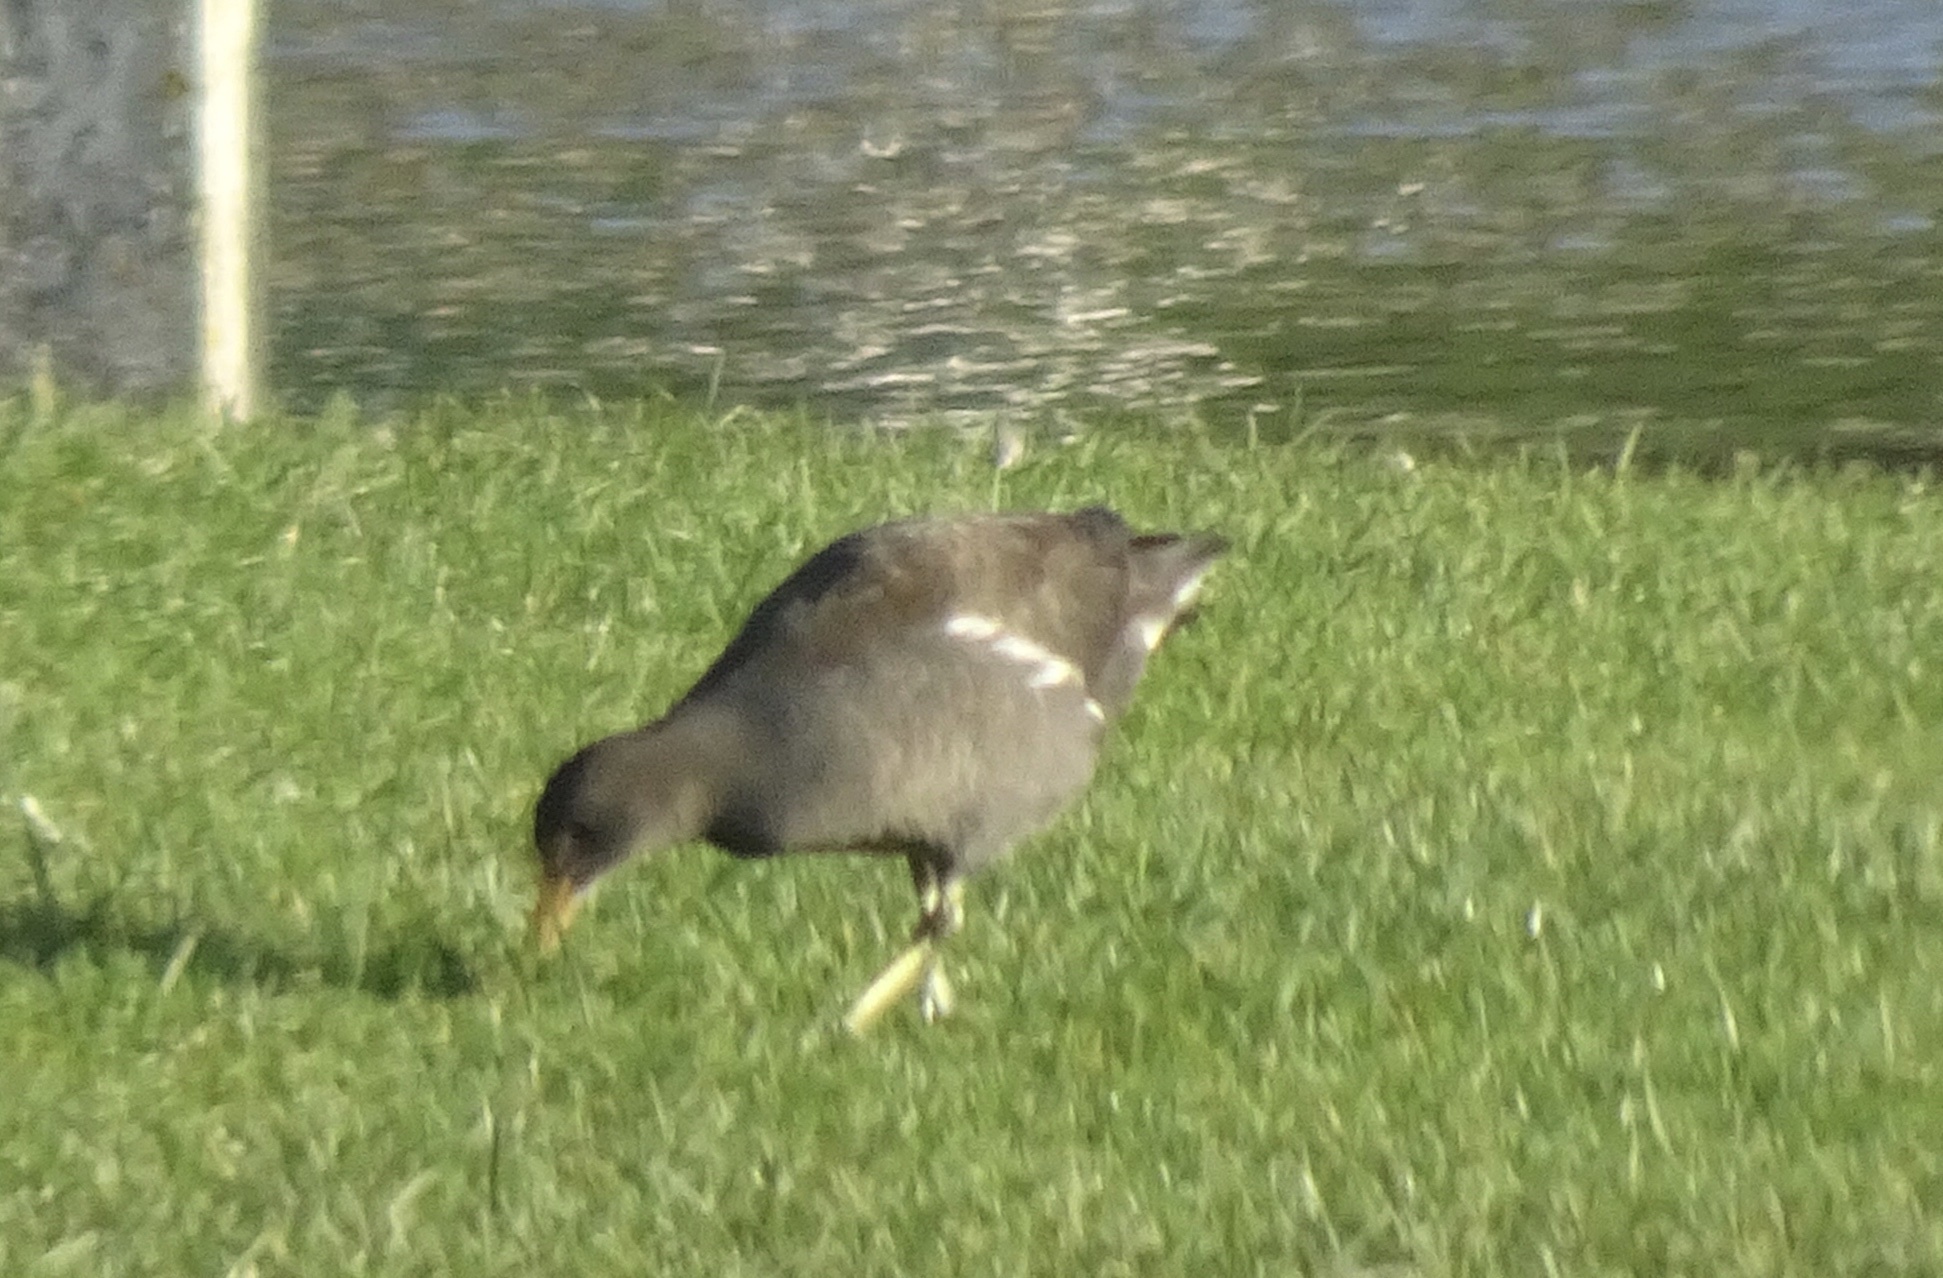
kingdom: Animalia
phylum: Chordata
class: Aves
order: Gruiformes
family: Rallidae
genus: Gallinula
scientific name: Gallinula chloropus
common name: Common moorhen
